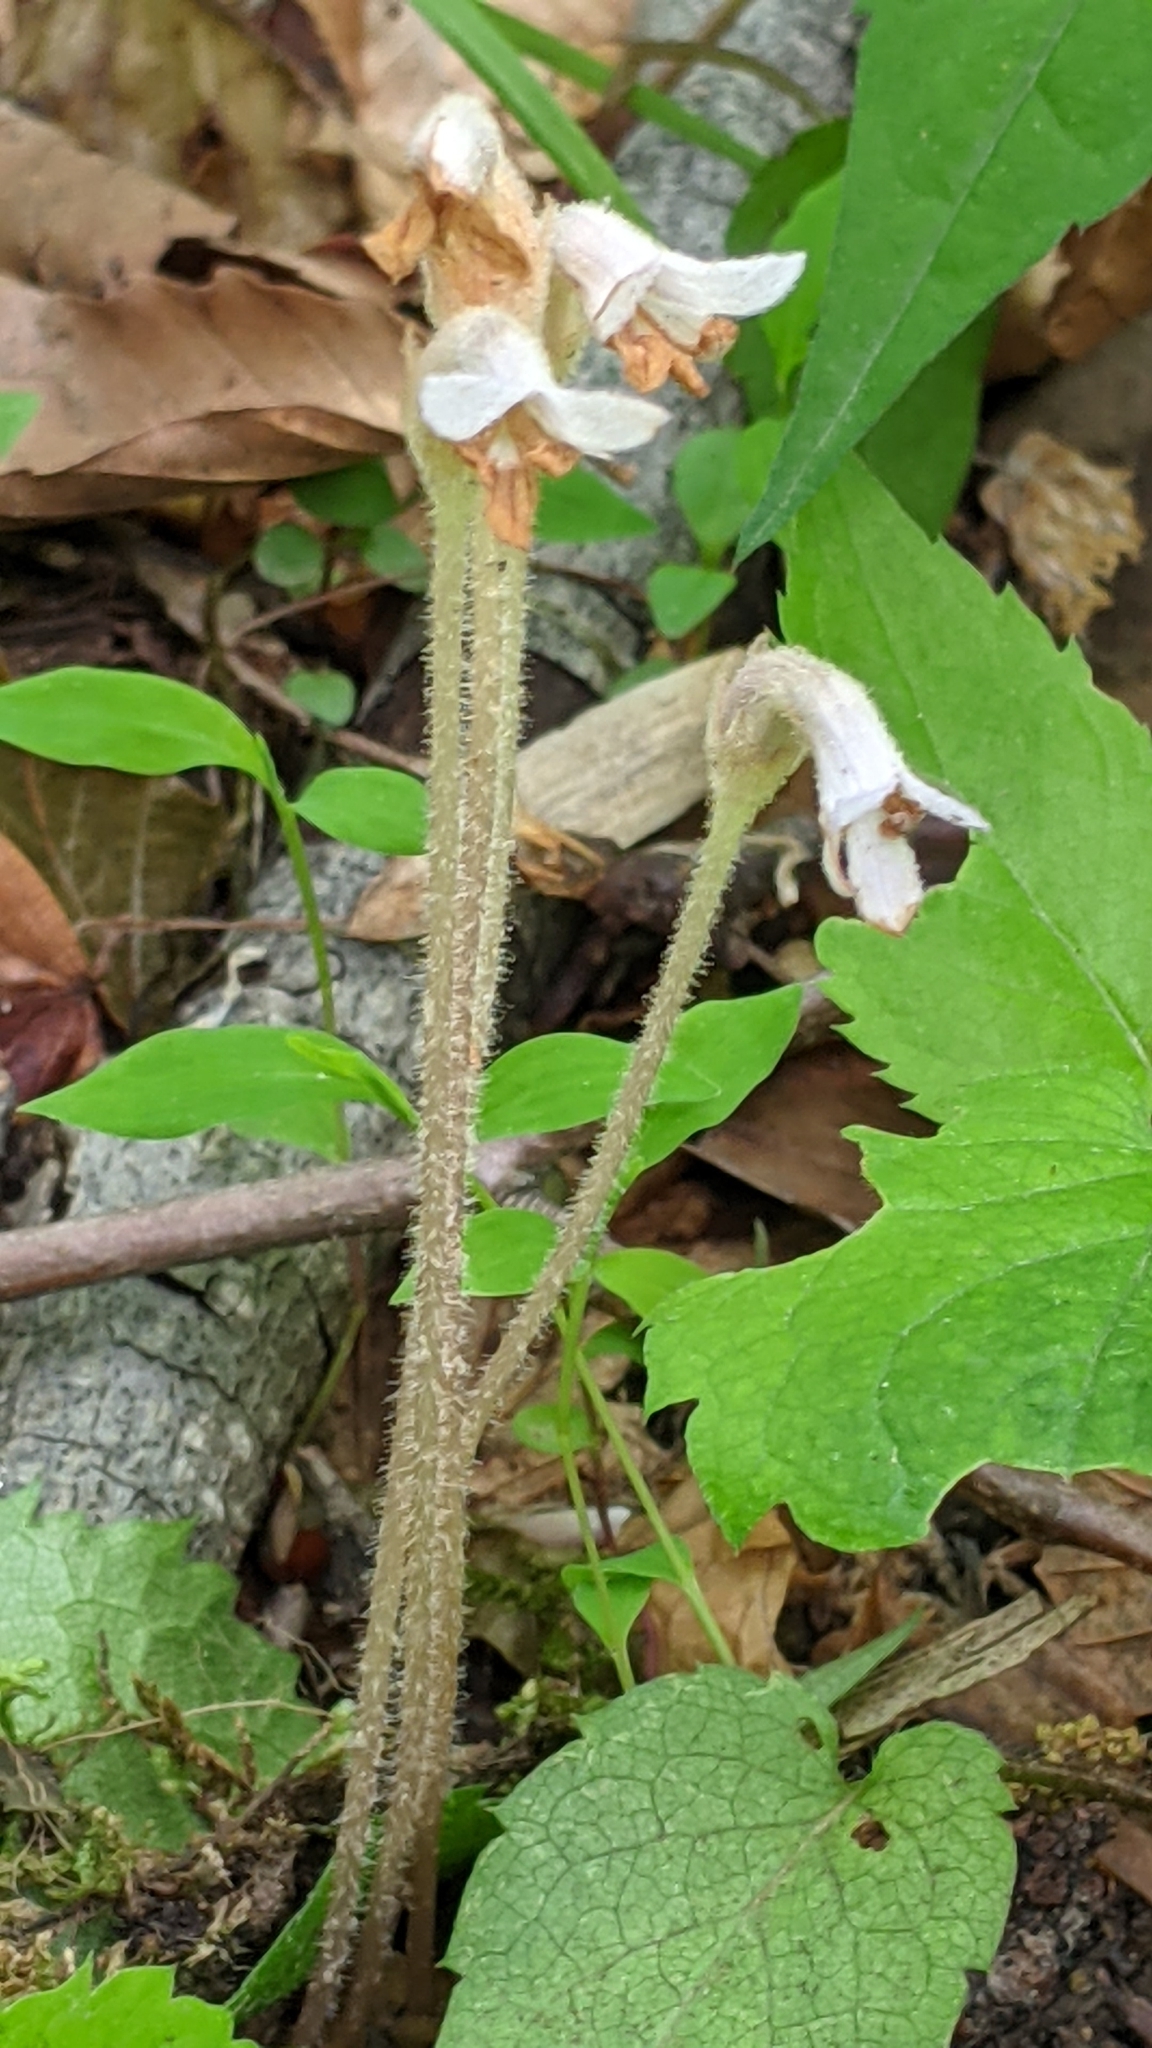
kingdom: Plantae
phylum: Tracheophyta
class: Magnoliopsida
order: Lamiales
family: Orobanchaceae
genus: Aphyllon
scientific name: Aphyllon uniflorum
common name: One-flowered broomrape
